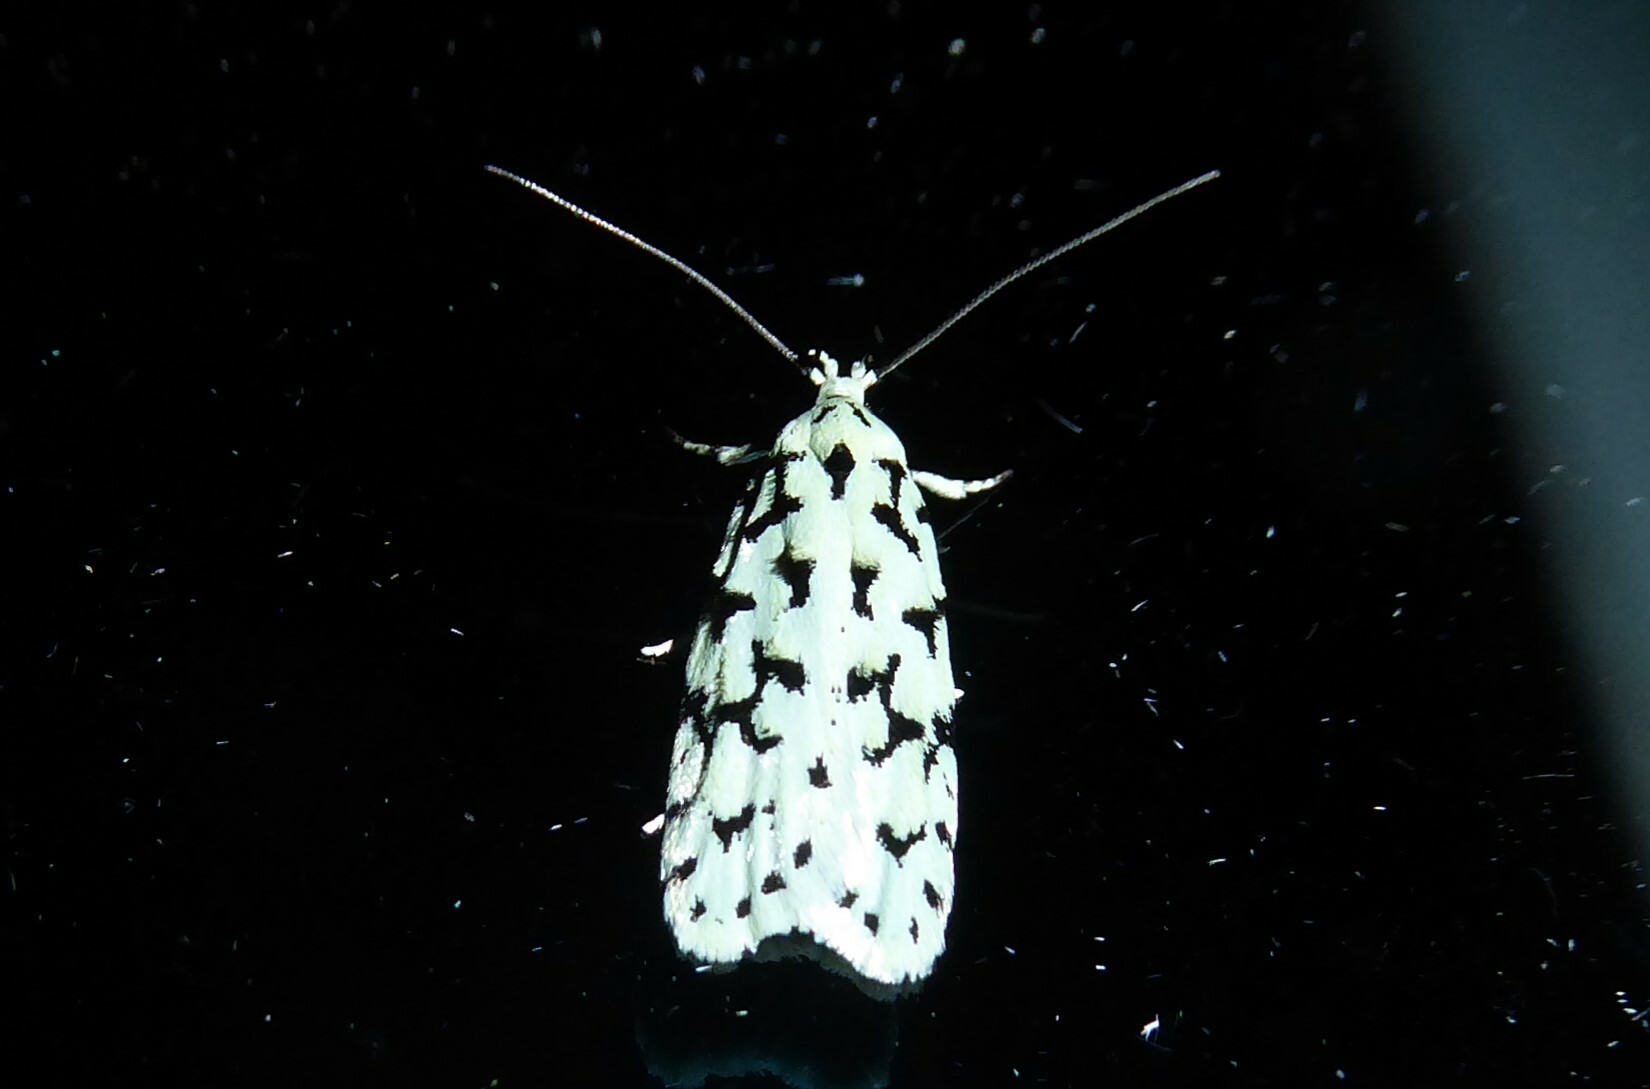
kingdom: Animalia
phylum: Arthropoda
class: Insecta
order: Lepidoptera
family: Oecophoridae
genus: Izatha
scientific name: Izatha huttoni
